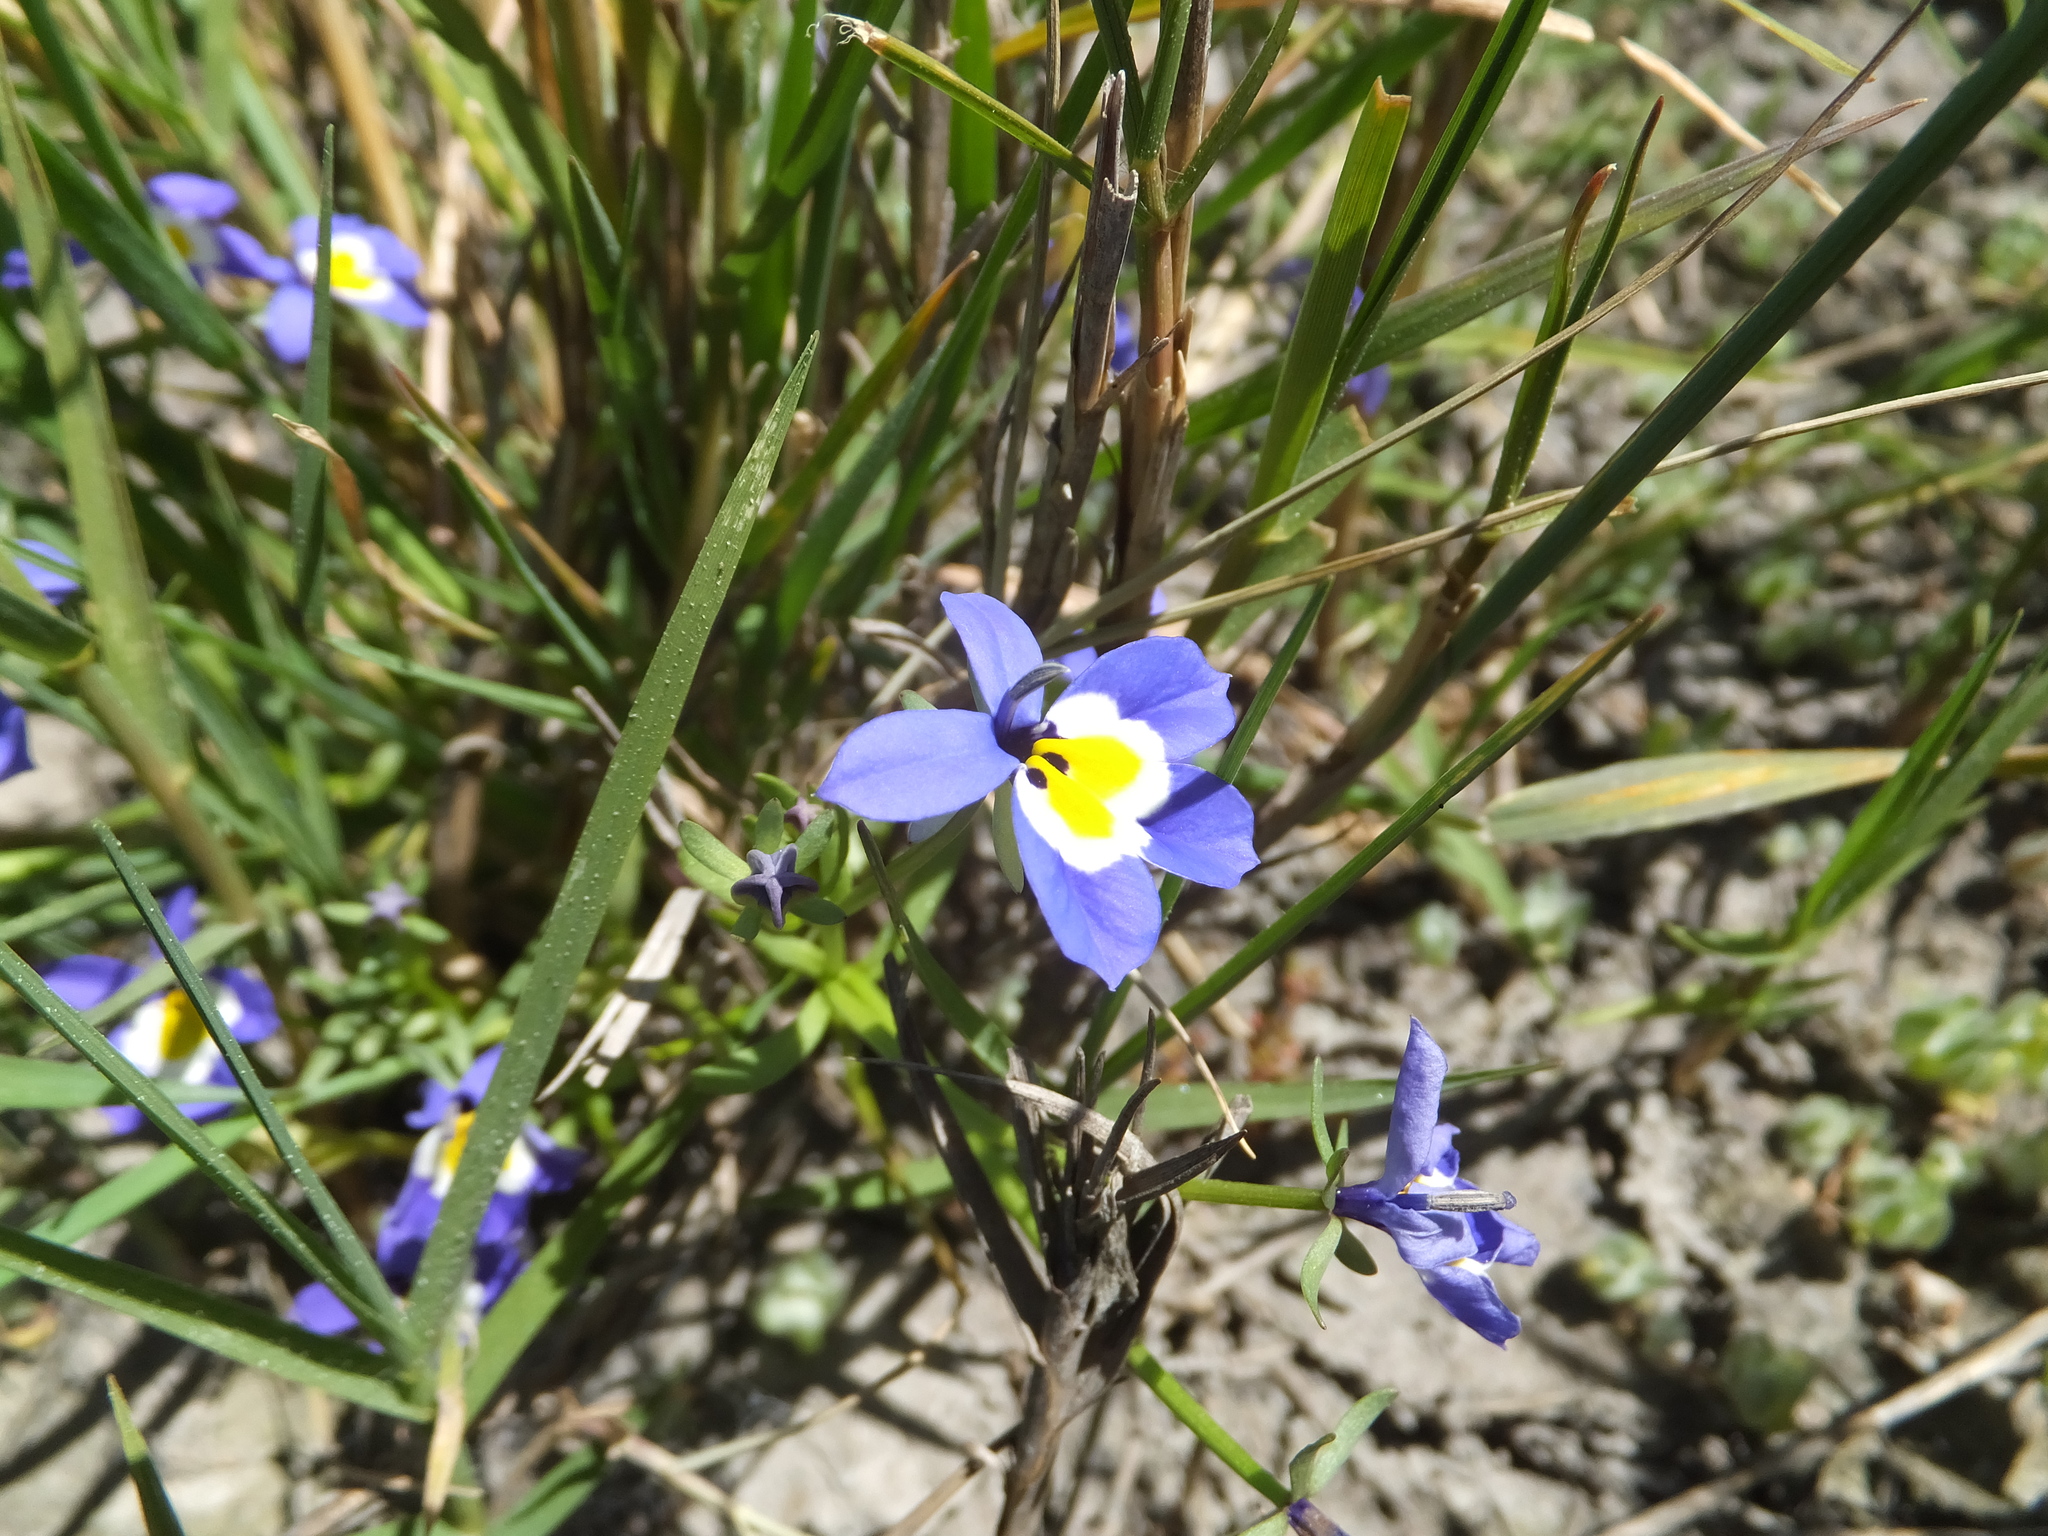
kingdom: Plantae
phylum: Tracheophyta
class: Magnoliopsida
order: Asterales
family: Campanulaceae
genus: Downingia
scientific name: Downingia pulchella
